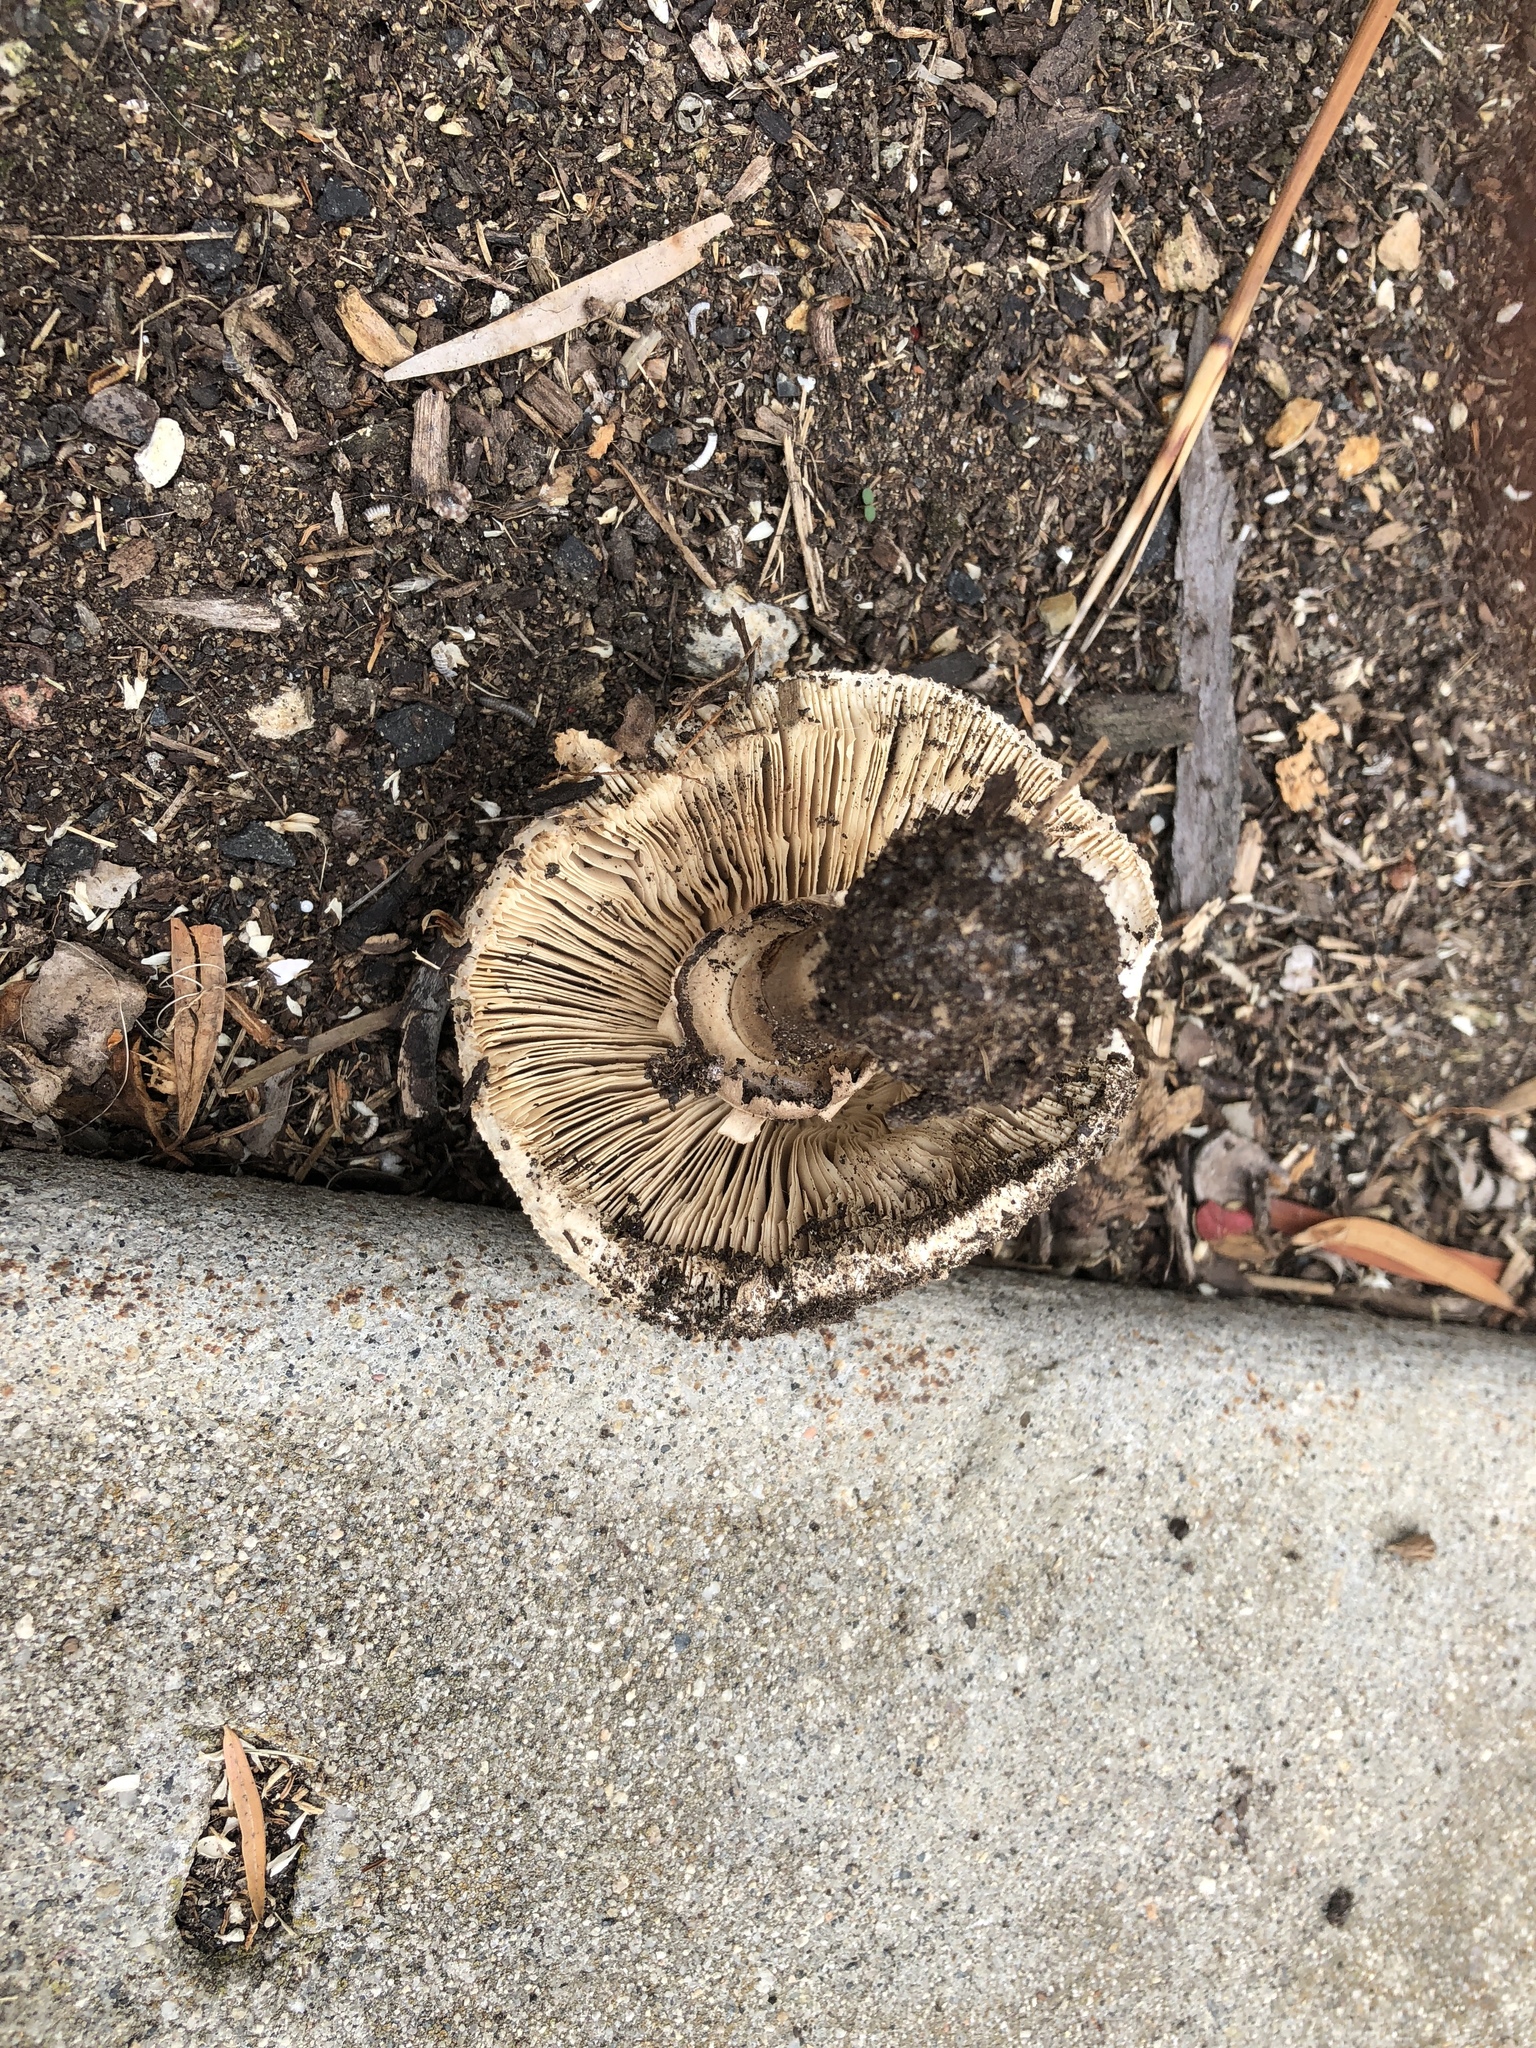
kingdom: Fungi
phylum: Basidiomycota
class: Agaricomycetes
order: Agaricales
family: Agaricaceae
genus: Chlorophyllum
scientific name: Chlorophyllum molybdites
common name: False parasol
